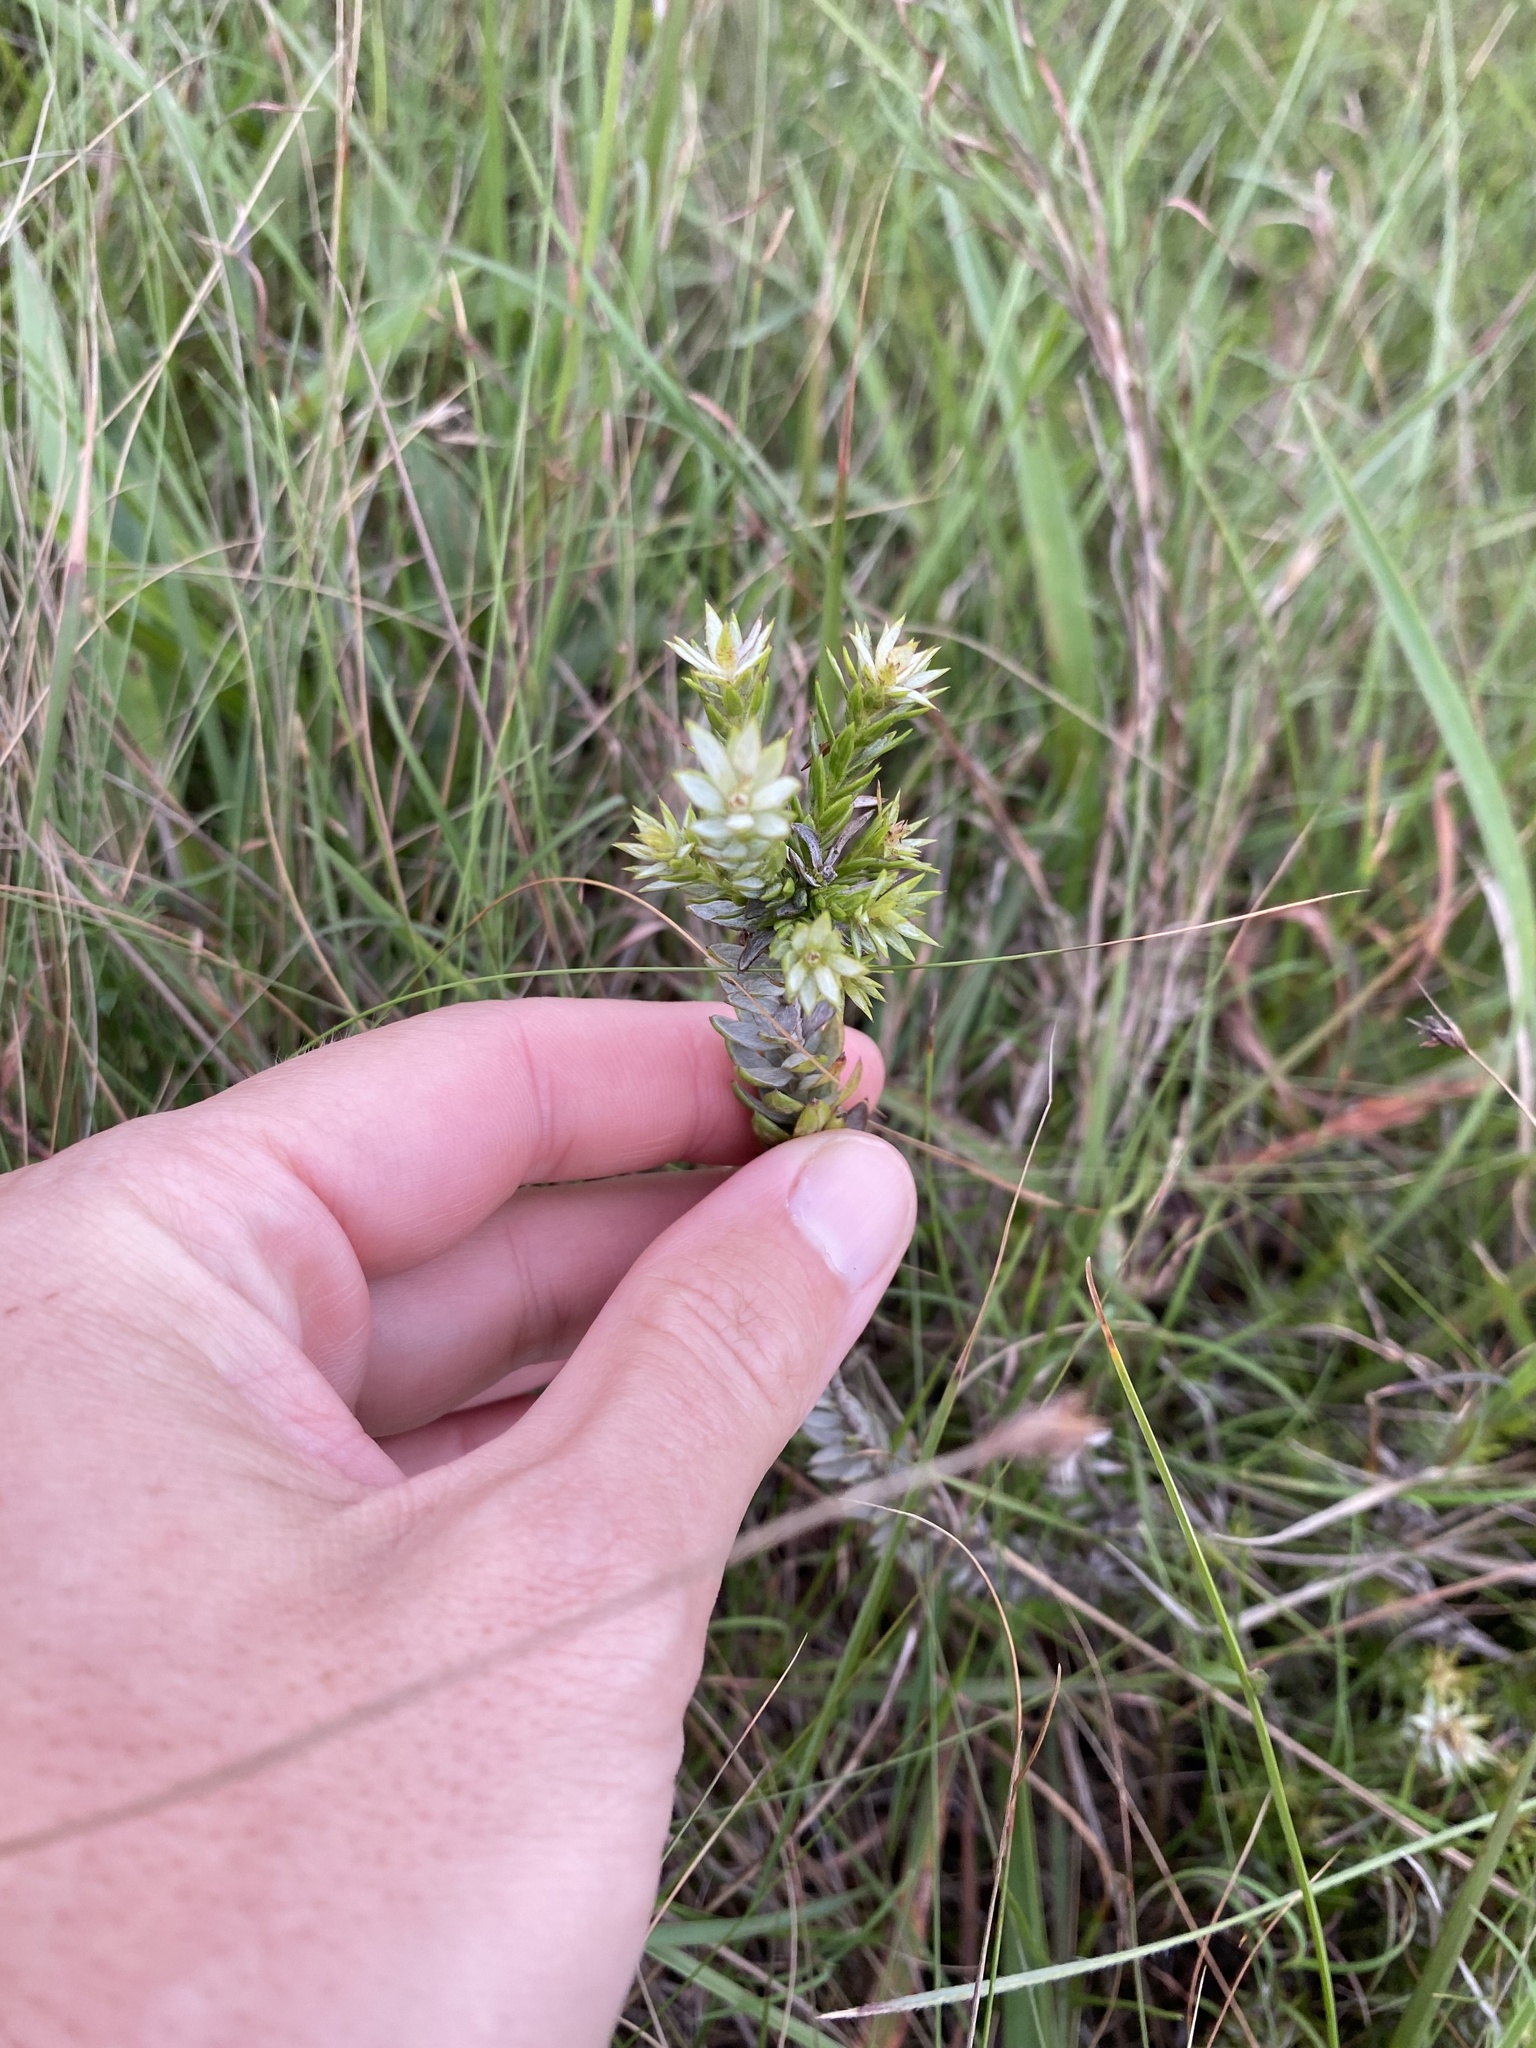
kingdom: Plantae
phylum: Tracheophyta
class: Magnoliopsida
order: Saxifragales
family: Crassulaceae
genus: Crassula
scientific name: Crassula ericoides
